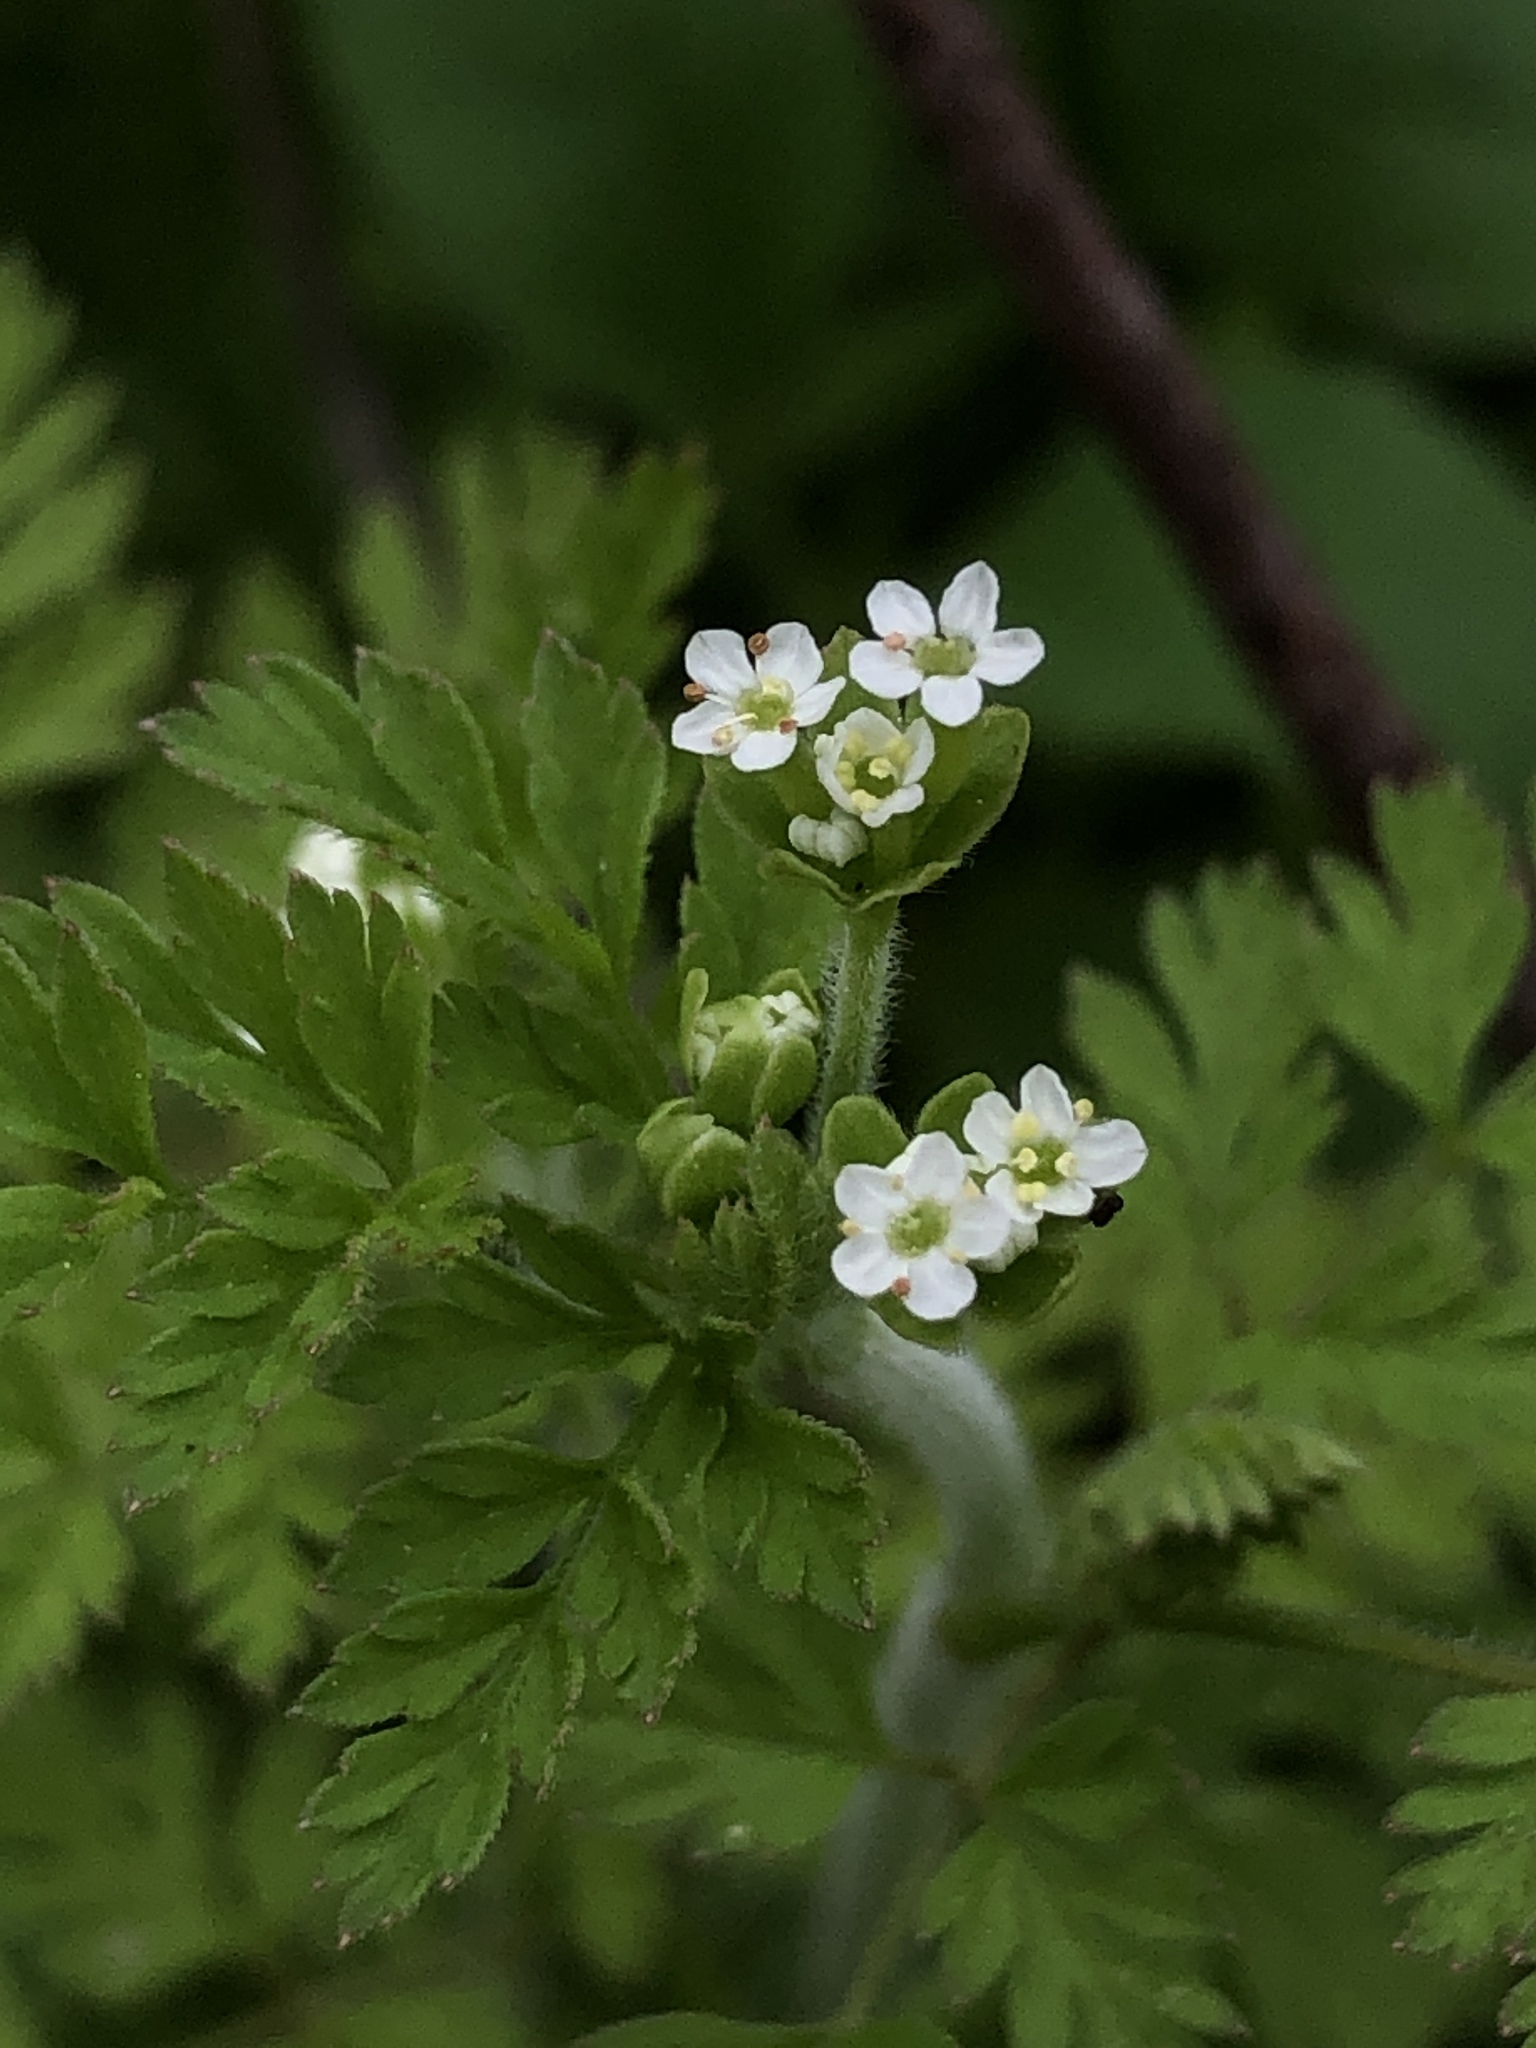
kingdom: Plantae
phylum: Tracheophyta
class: Magnoliopsida
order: Apiales
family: Apiaceae
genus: Chaerophyllum
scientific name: Chaerophyllum tainturieri
